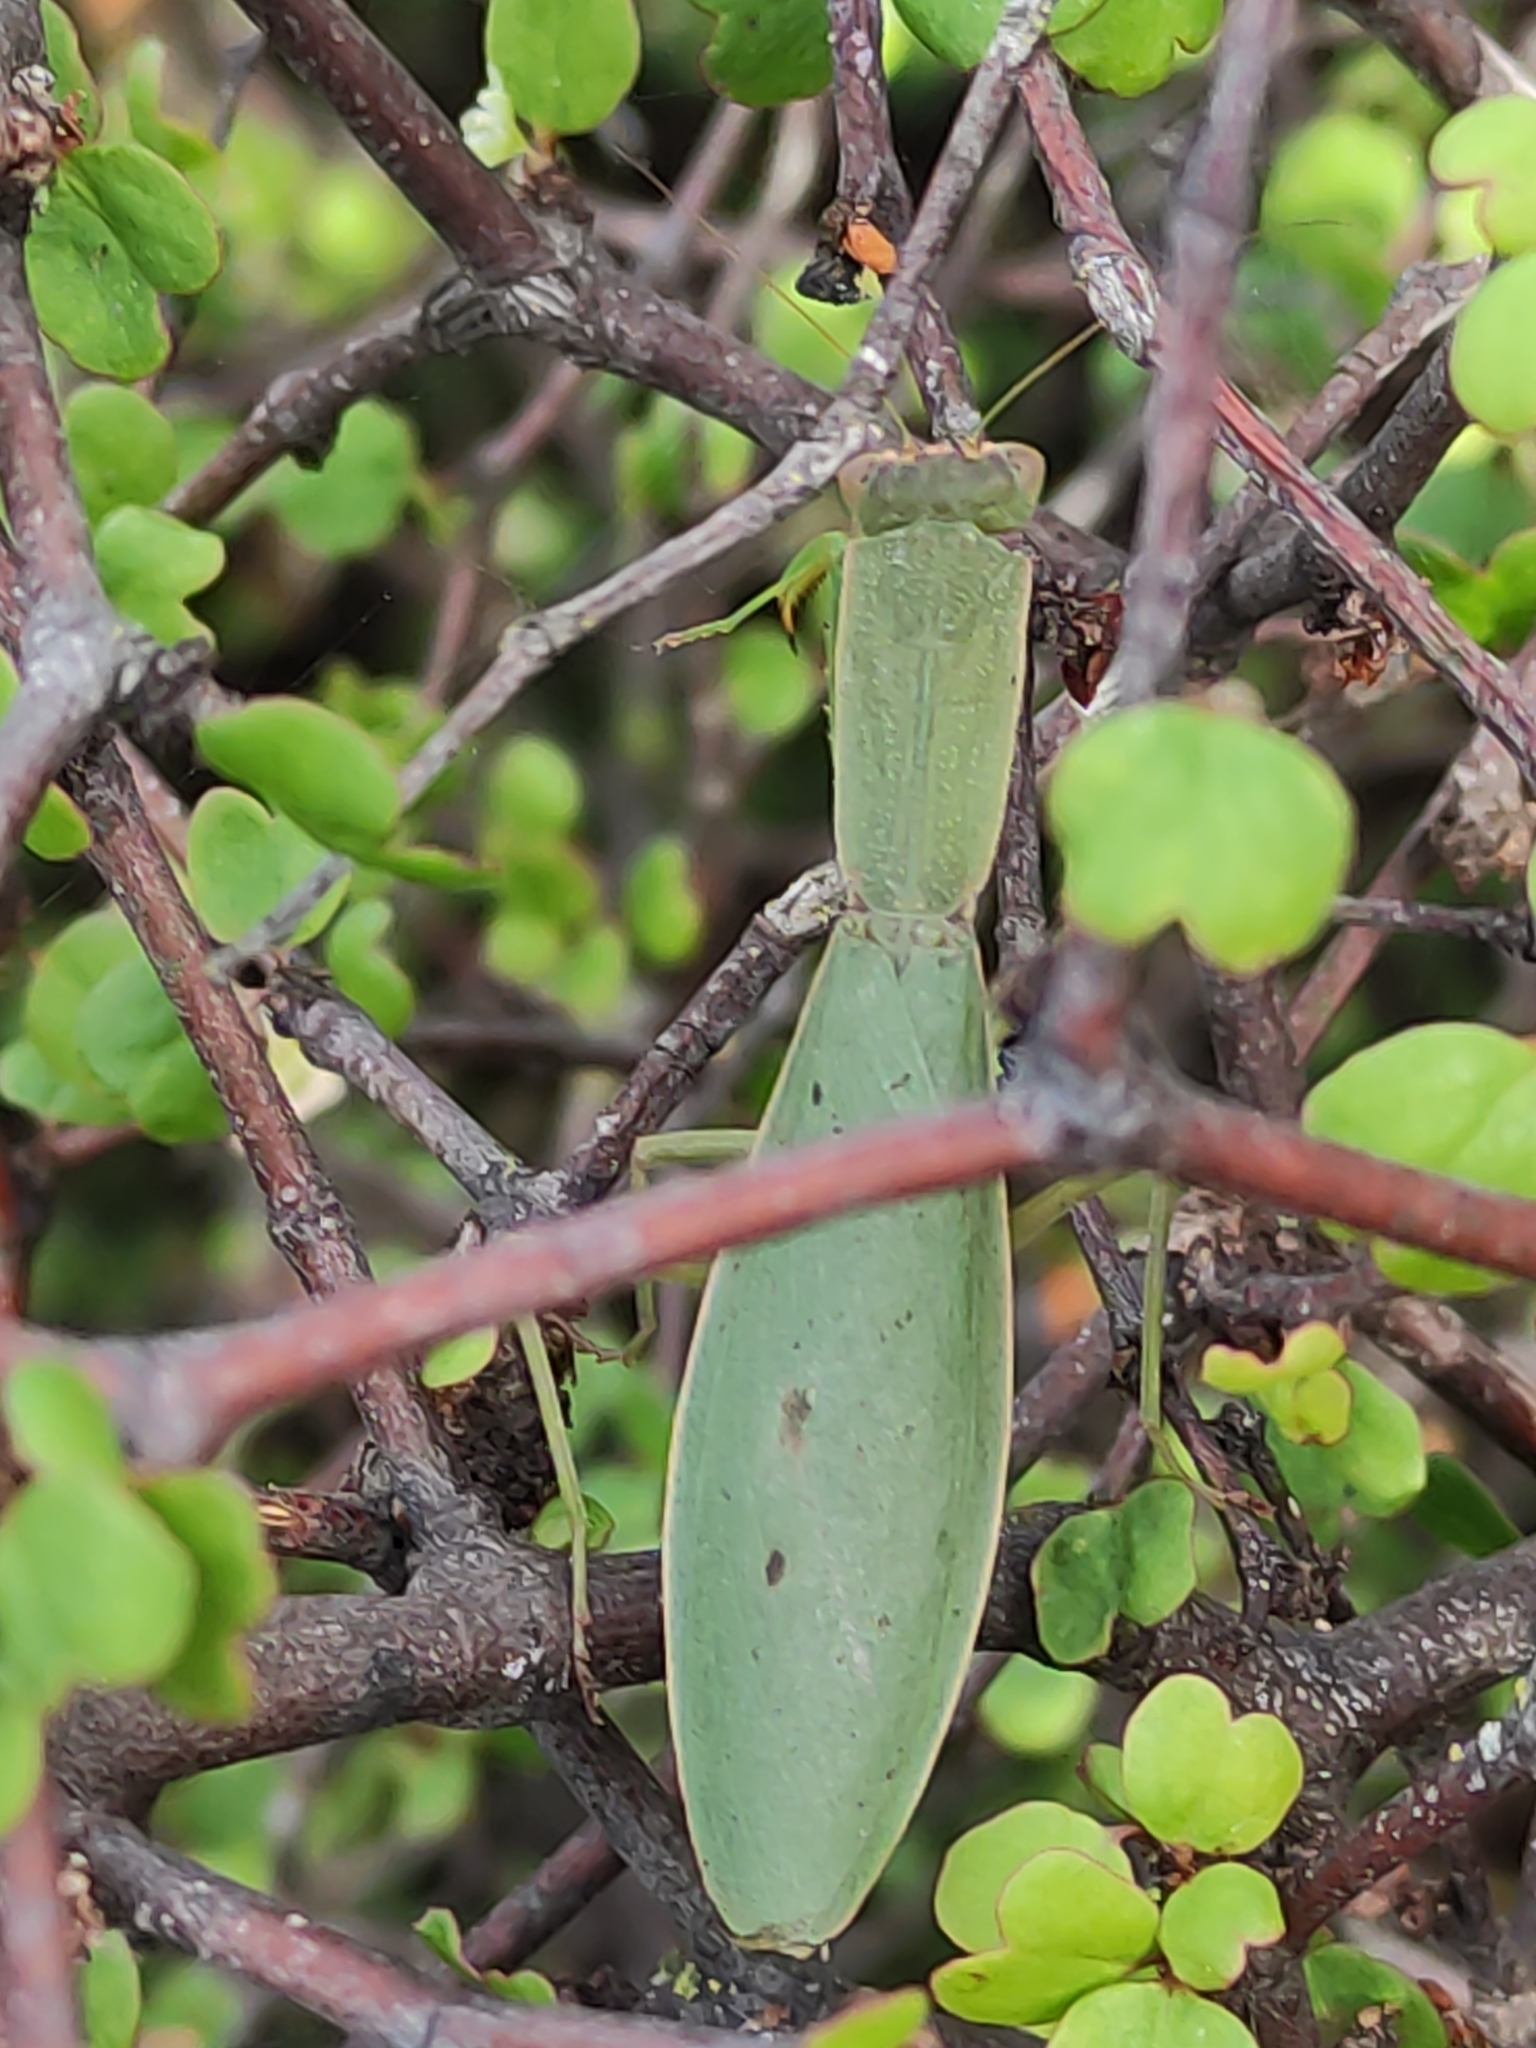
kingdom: Animalia
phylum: Arthropoda
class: Insecta
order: Mantodea
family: Mantidae
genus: Orthodera
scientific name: Orthodera novaezealandiae
